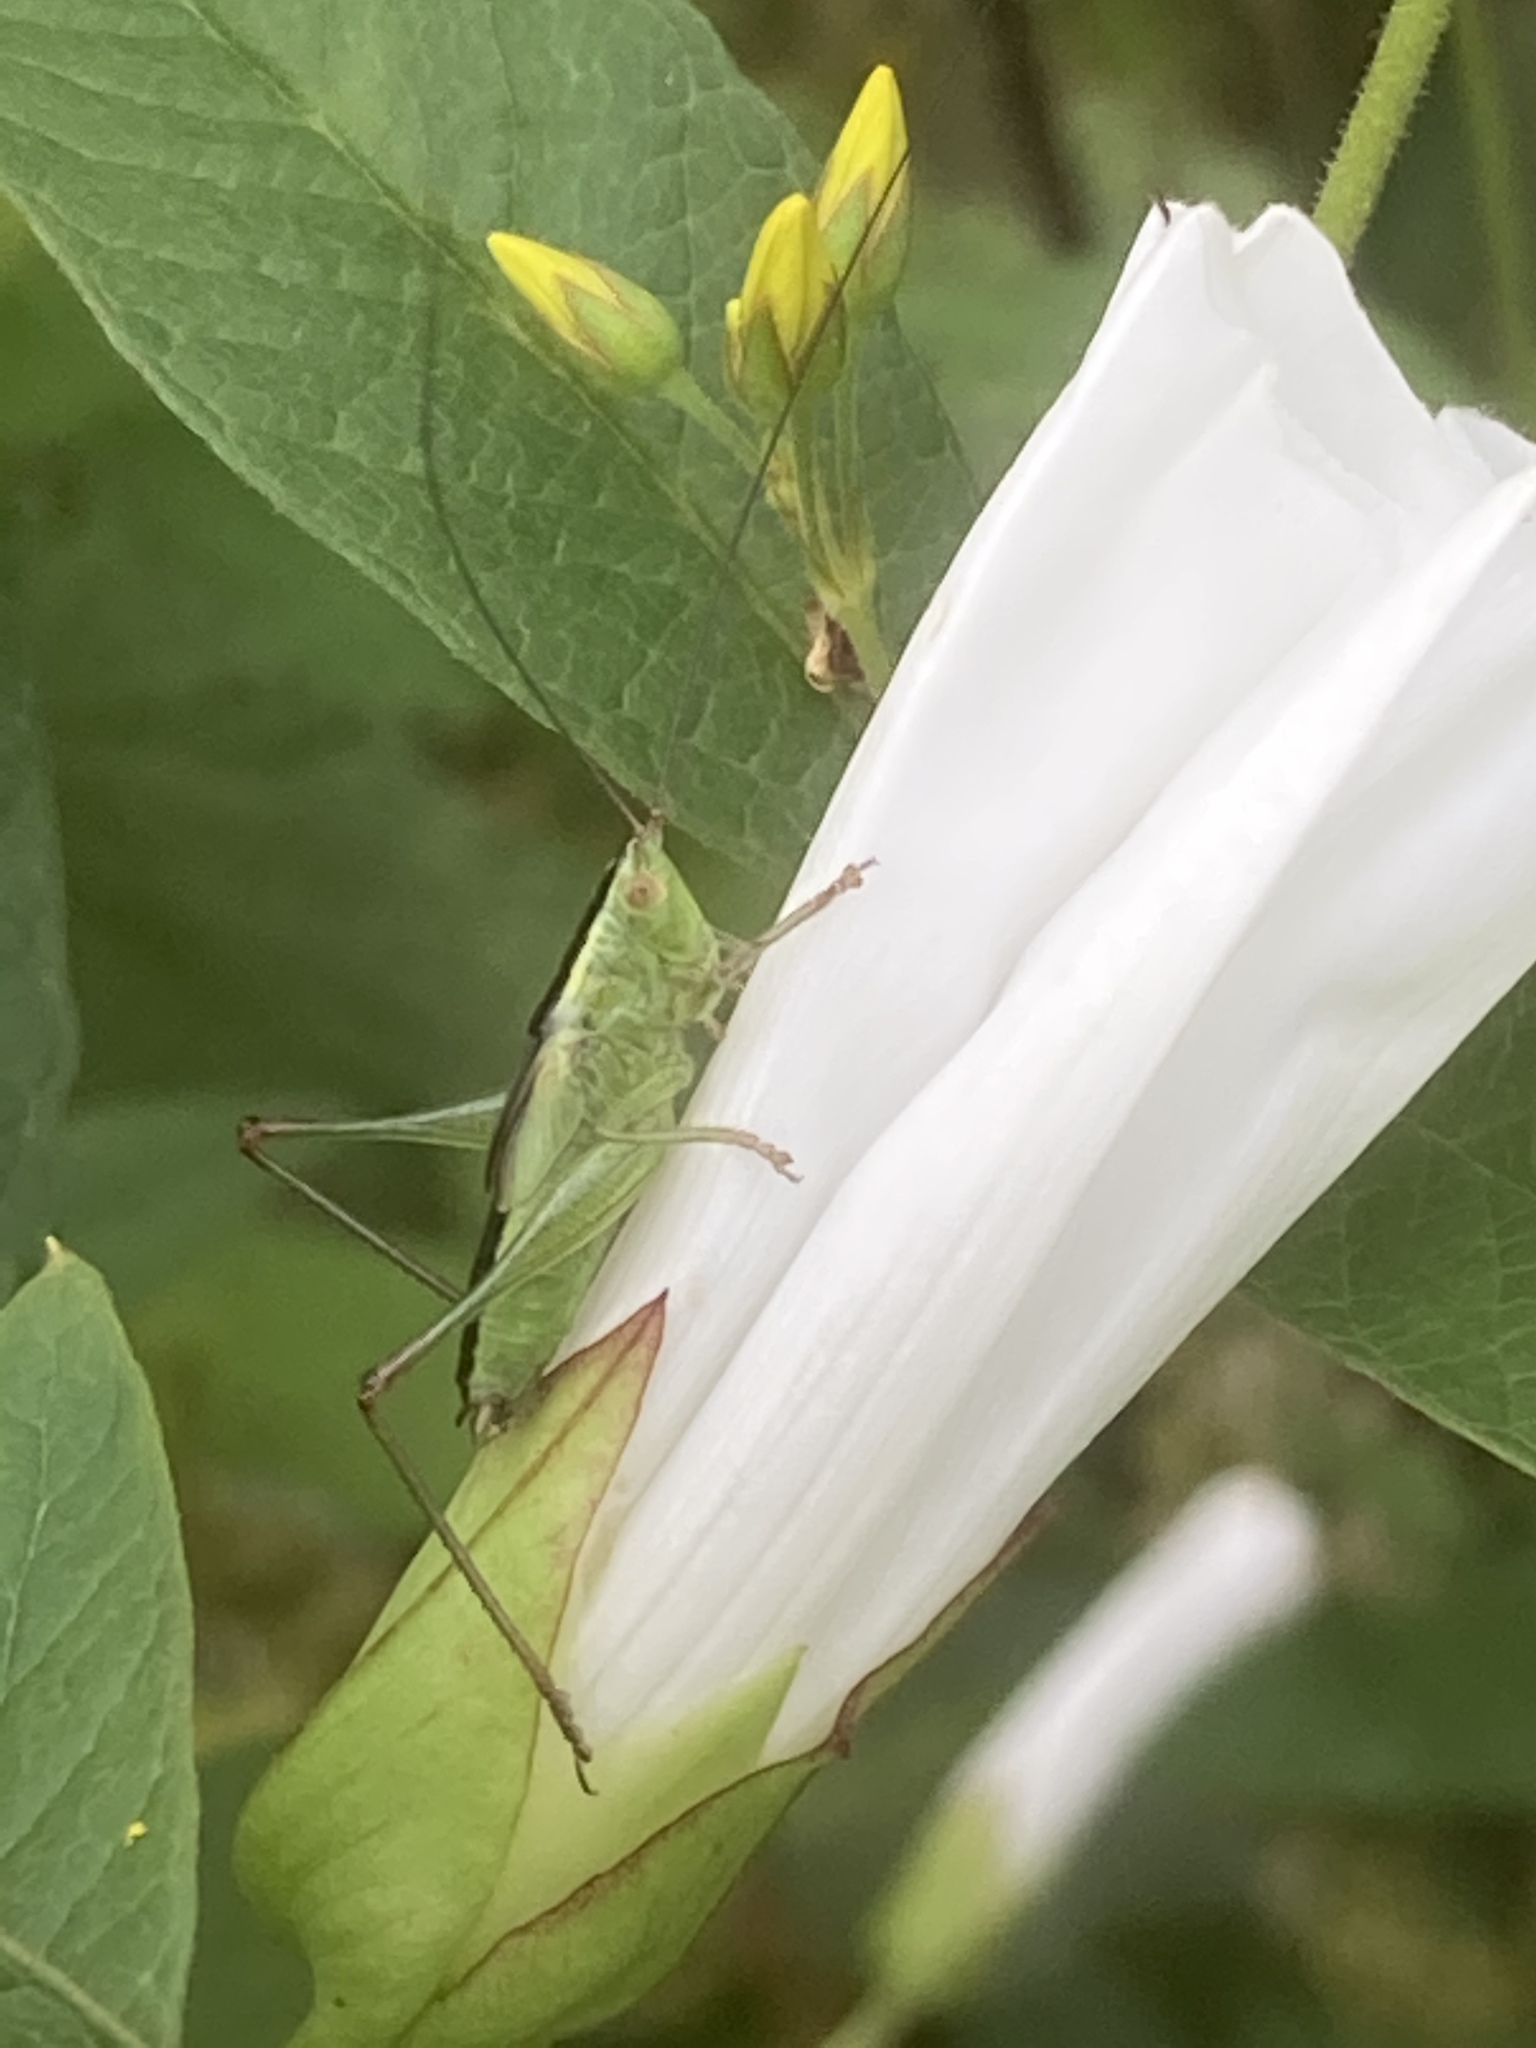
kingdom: Animalia
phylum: Arthropoda
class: Insecta
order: Orthoptera
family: Tettigoniidae
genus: Conocephalus
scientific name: Conocephalus fuscus
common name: Long-winged conehead
